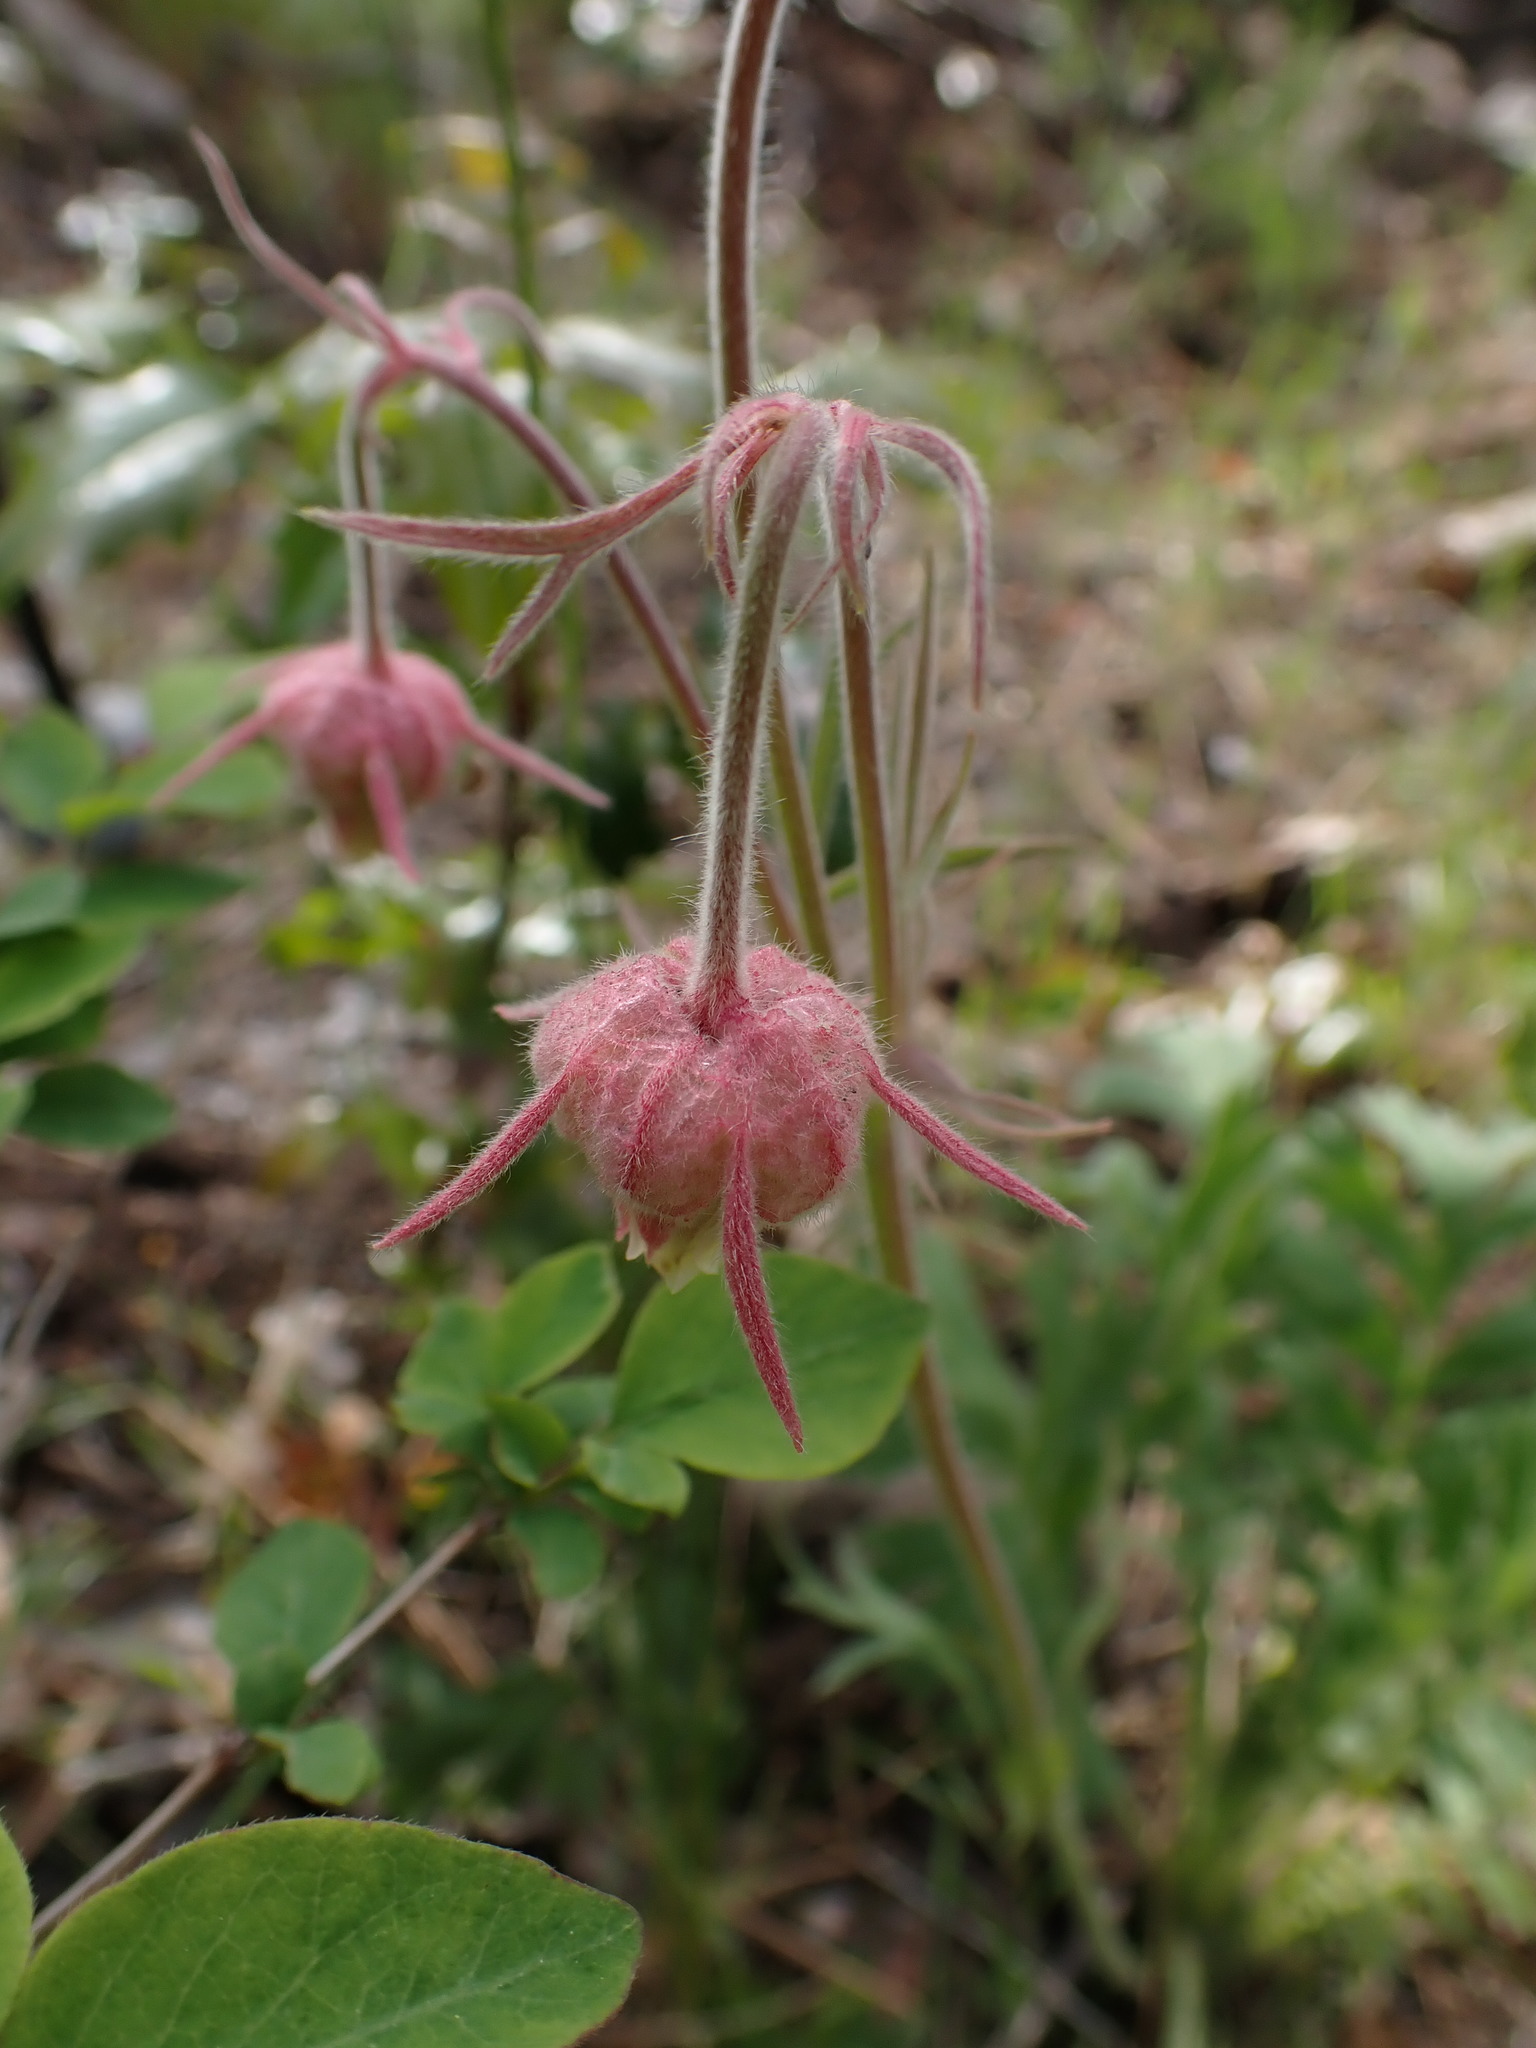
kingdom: Plantae
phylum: Tracheophyta
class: Magnoliopsida
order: Rosales
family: Rosaceae
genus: Geum
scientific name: Geum triflorum
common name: Old man's whiskers
